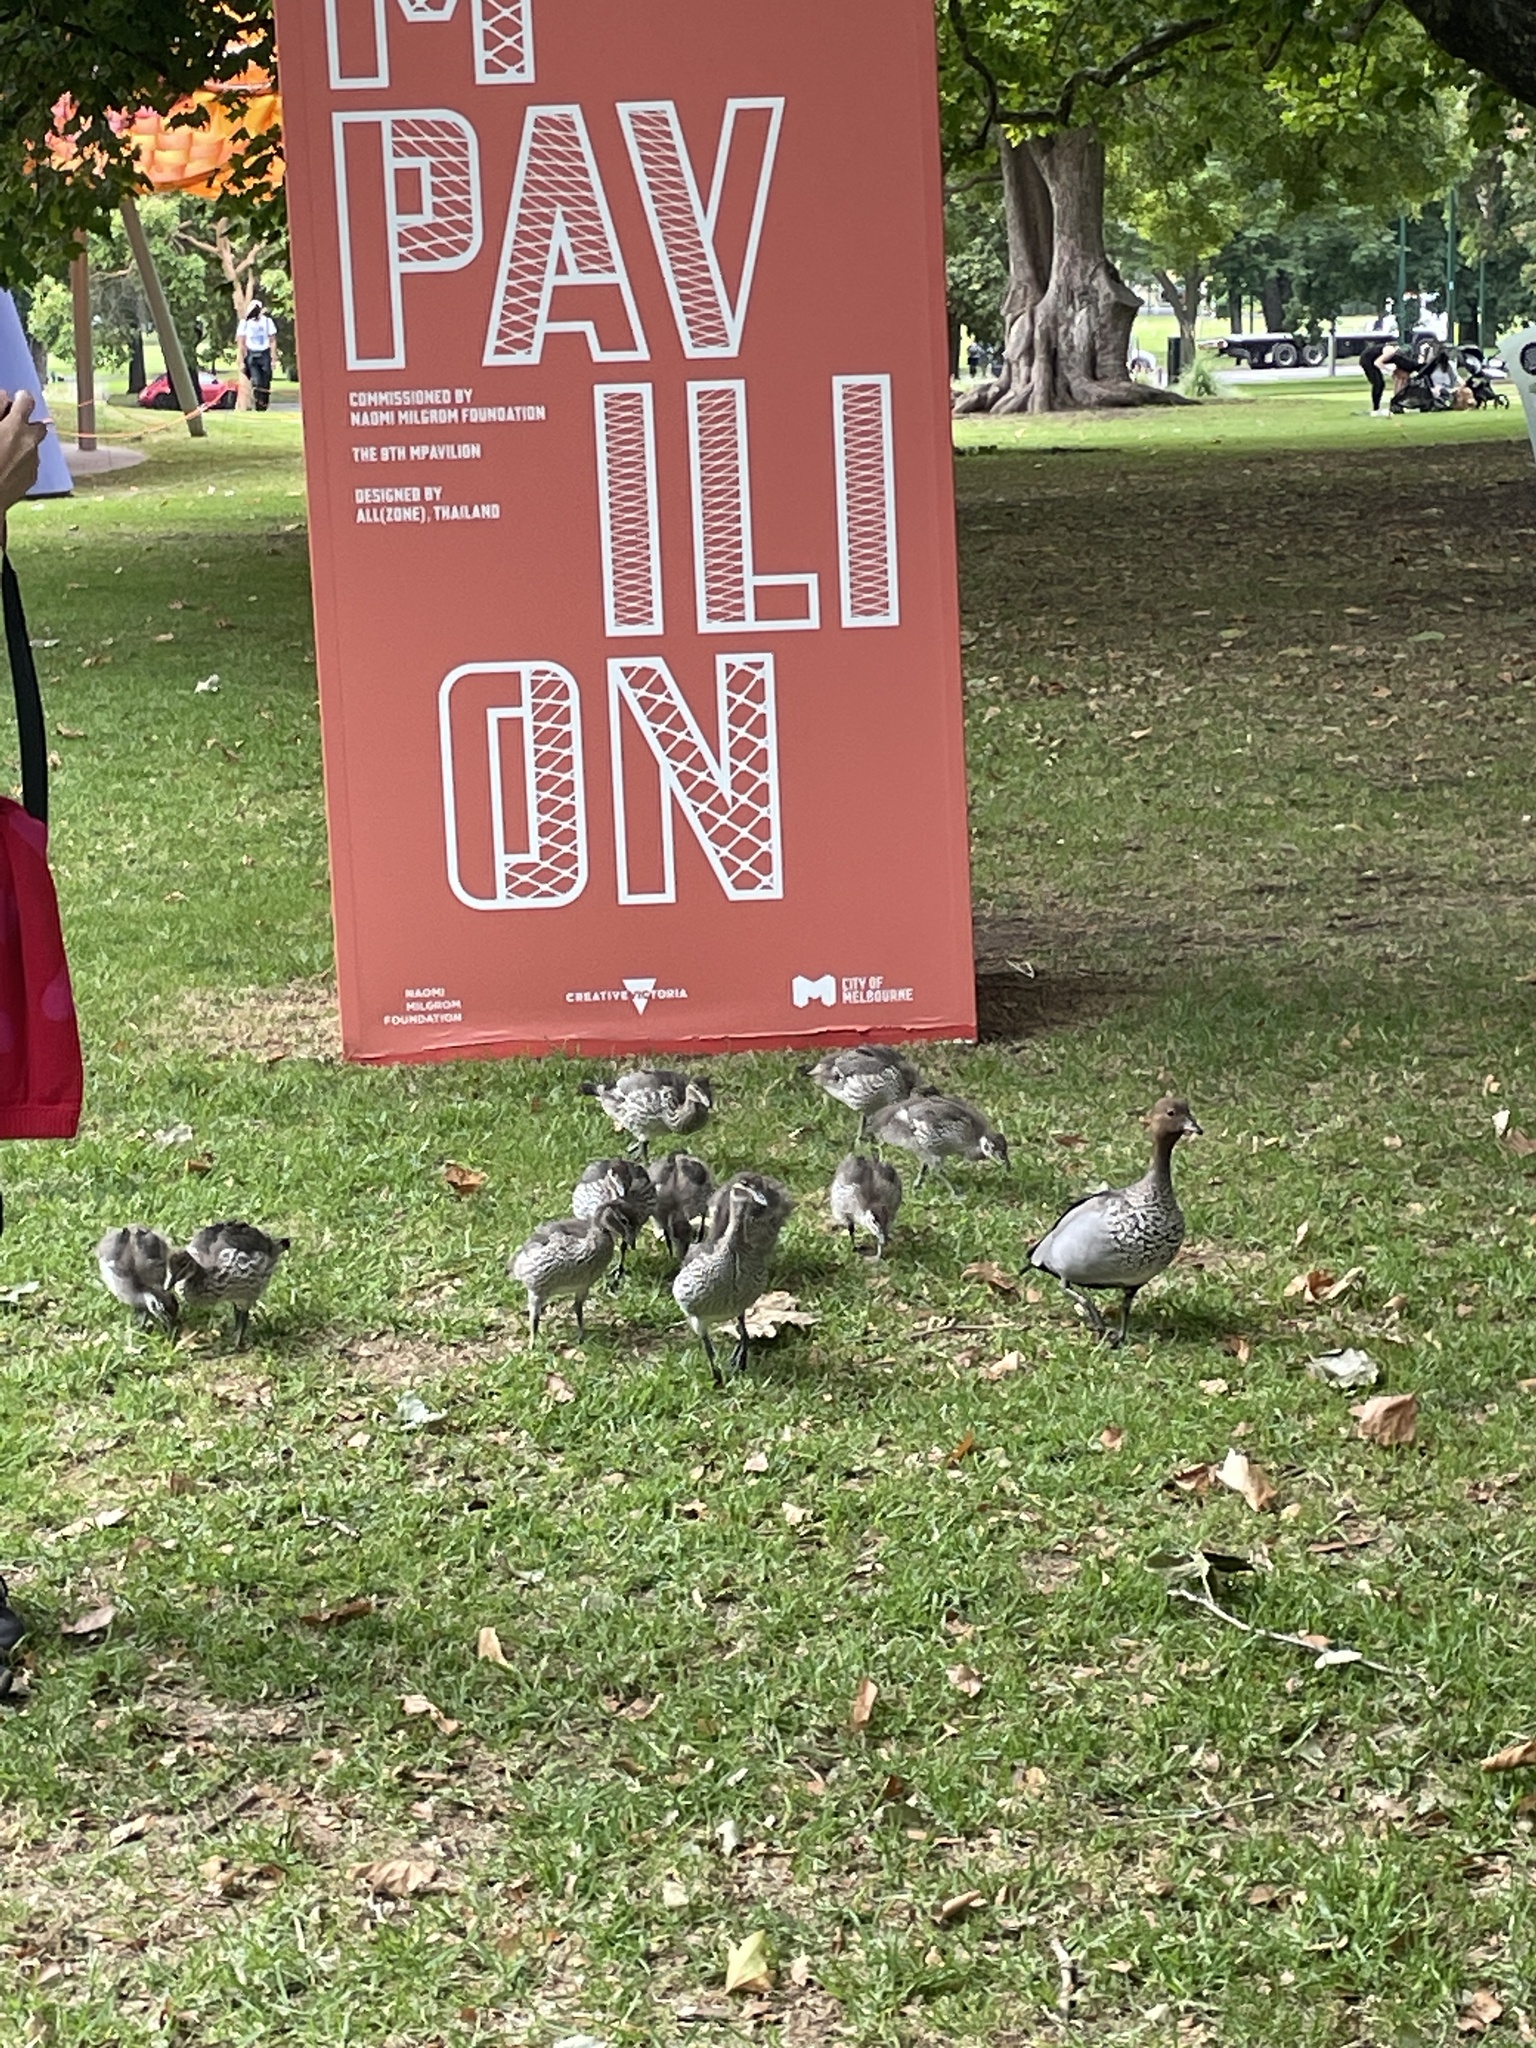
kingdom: Animalia
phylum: Chordata
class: Aves
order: Anseriformes
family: Anatidae
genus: Chenonetta
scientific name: Chenonetta jubata
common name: Maned duck
